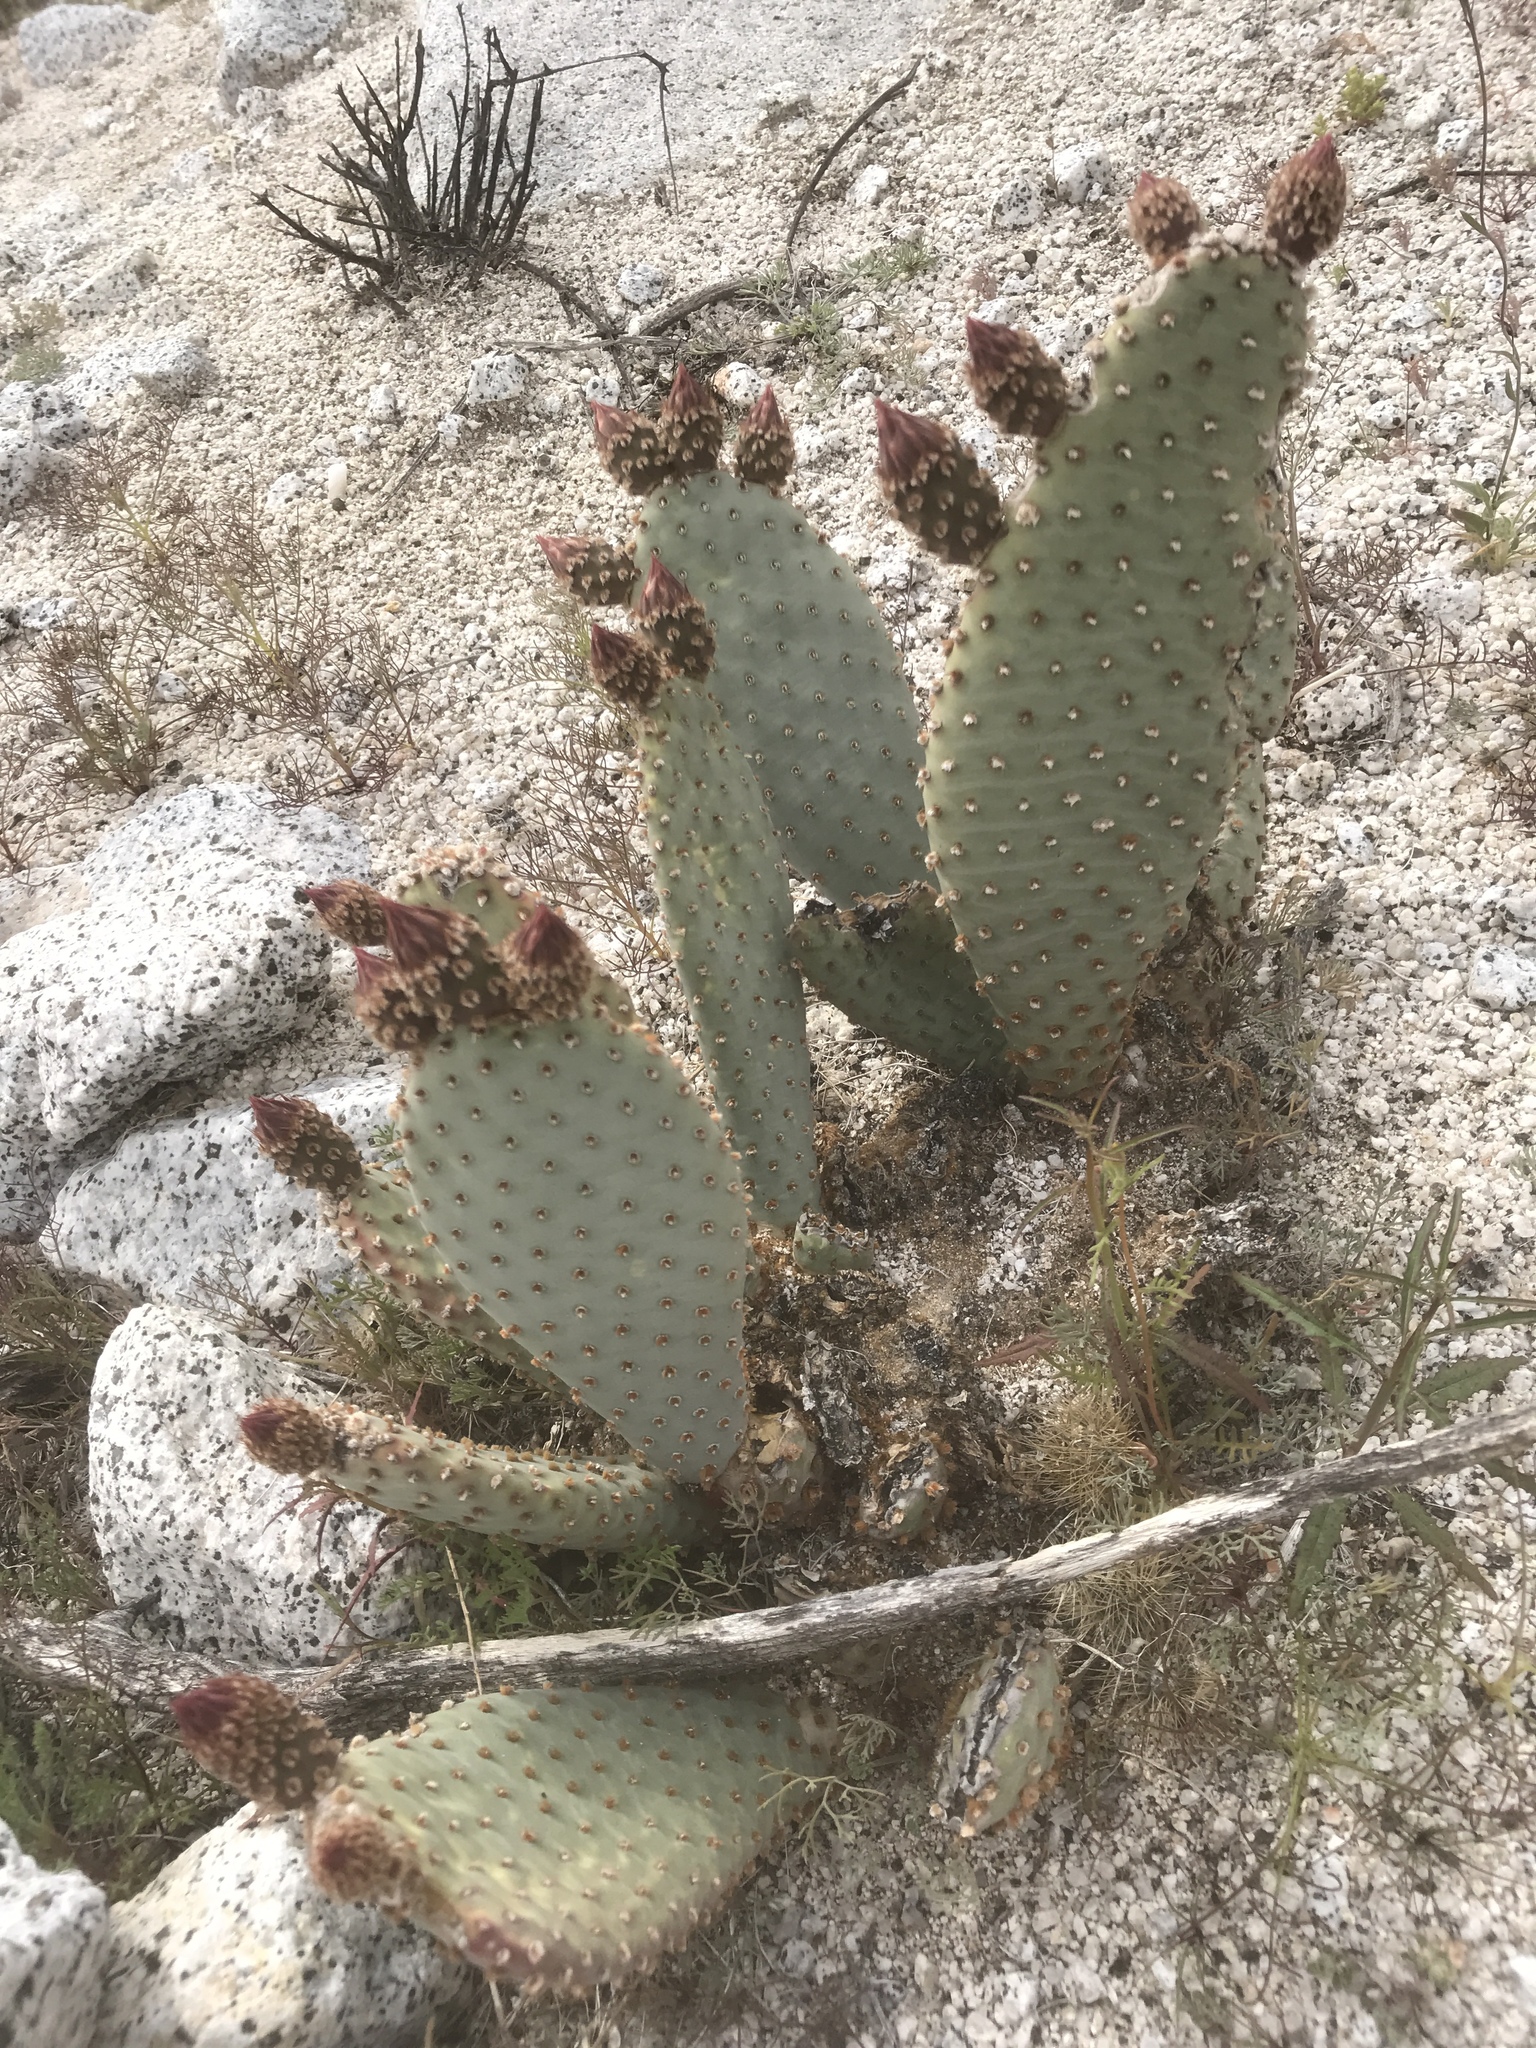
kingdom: Plantae
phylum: Tracheophyta
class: Magnoliopsida
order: Caryophyllales
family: Cactaceae
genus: Opuntia
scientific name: Opuntia basilaris
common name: Beavertail prickly-pear
